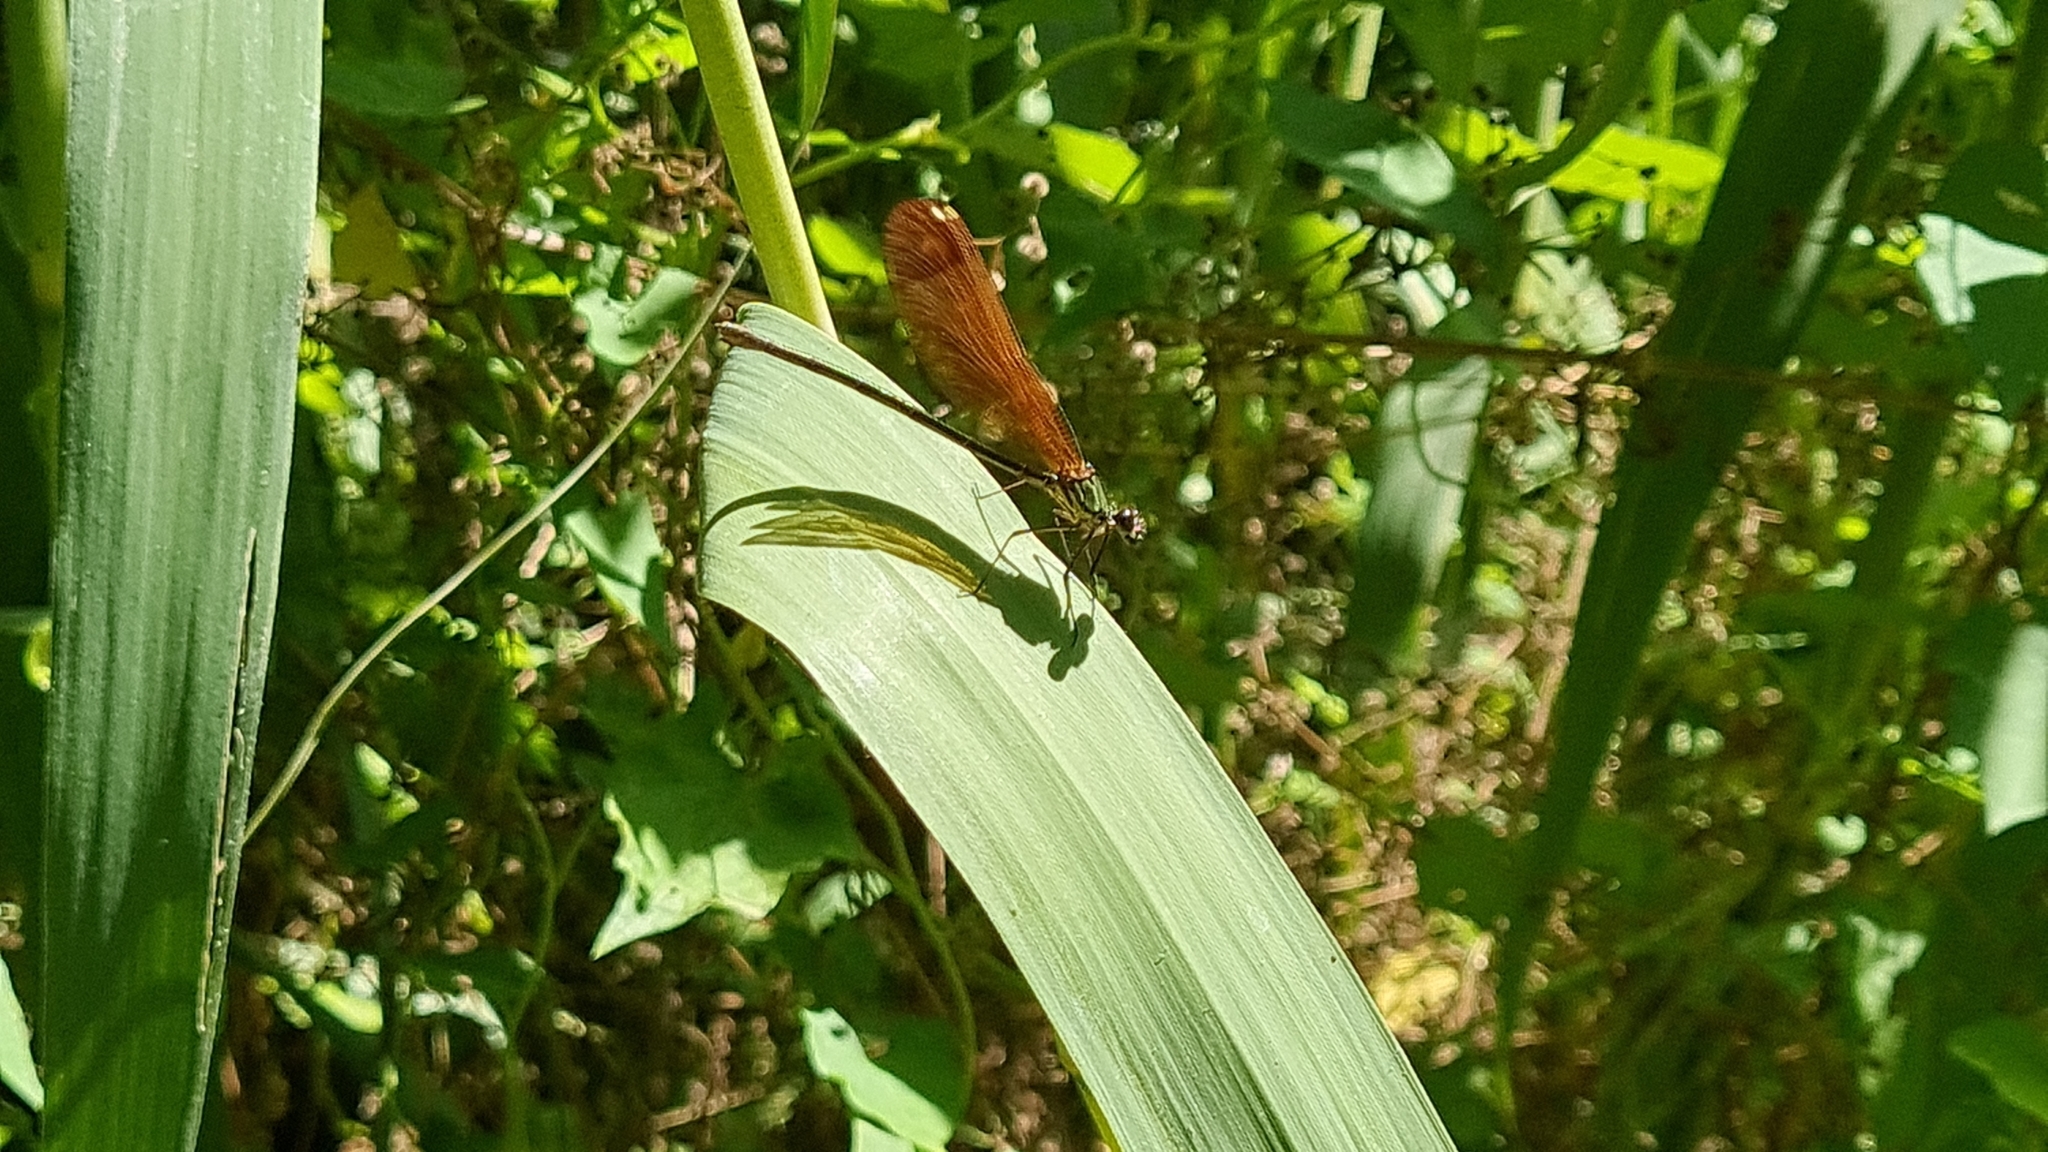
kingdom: Animalia
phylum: Arthropoda
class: Insecta
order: Odonata
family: Calopterygidae
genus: Calopteryx
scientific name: Calopteryx haemorrhoidalis
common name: Copper demoiselle
